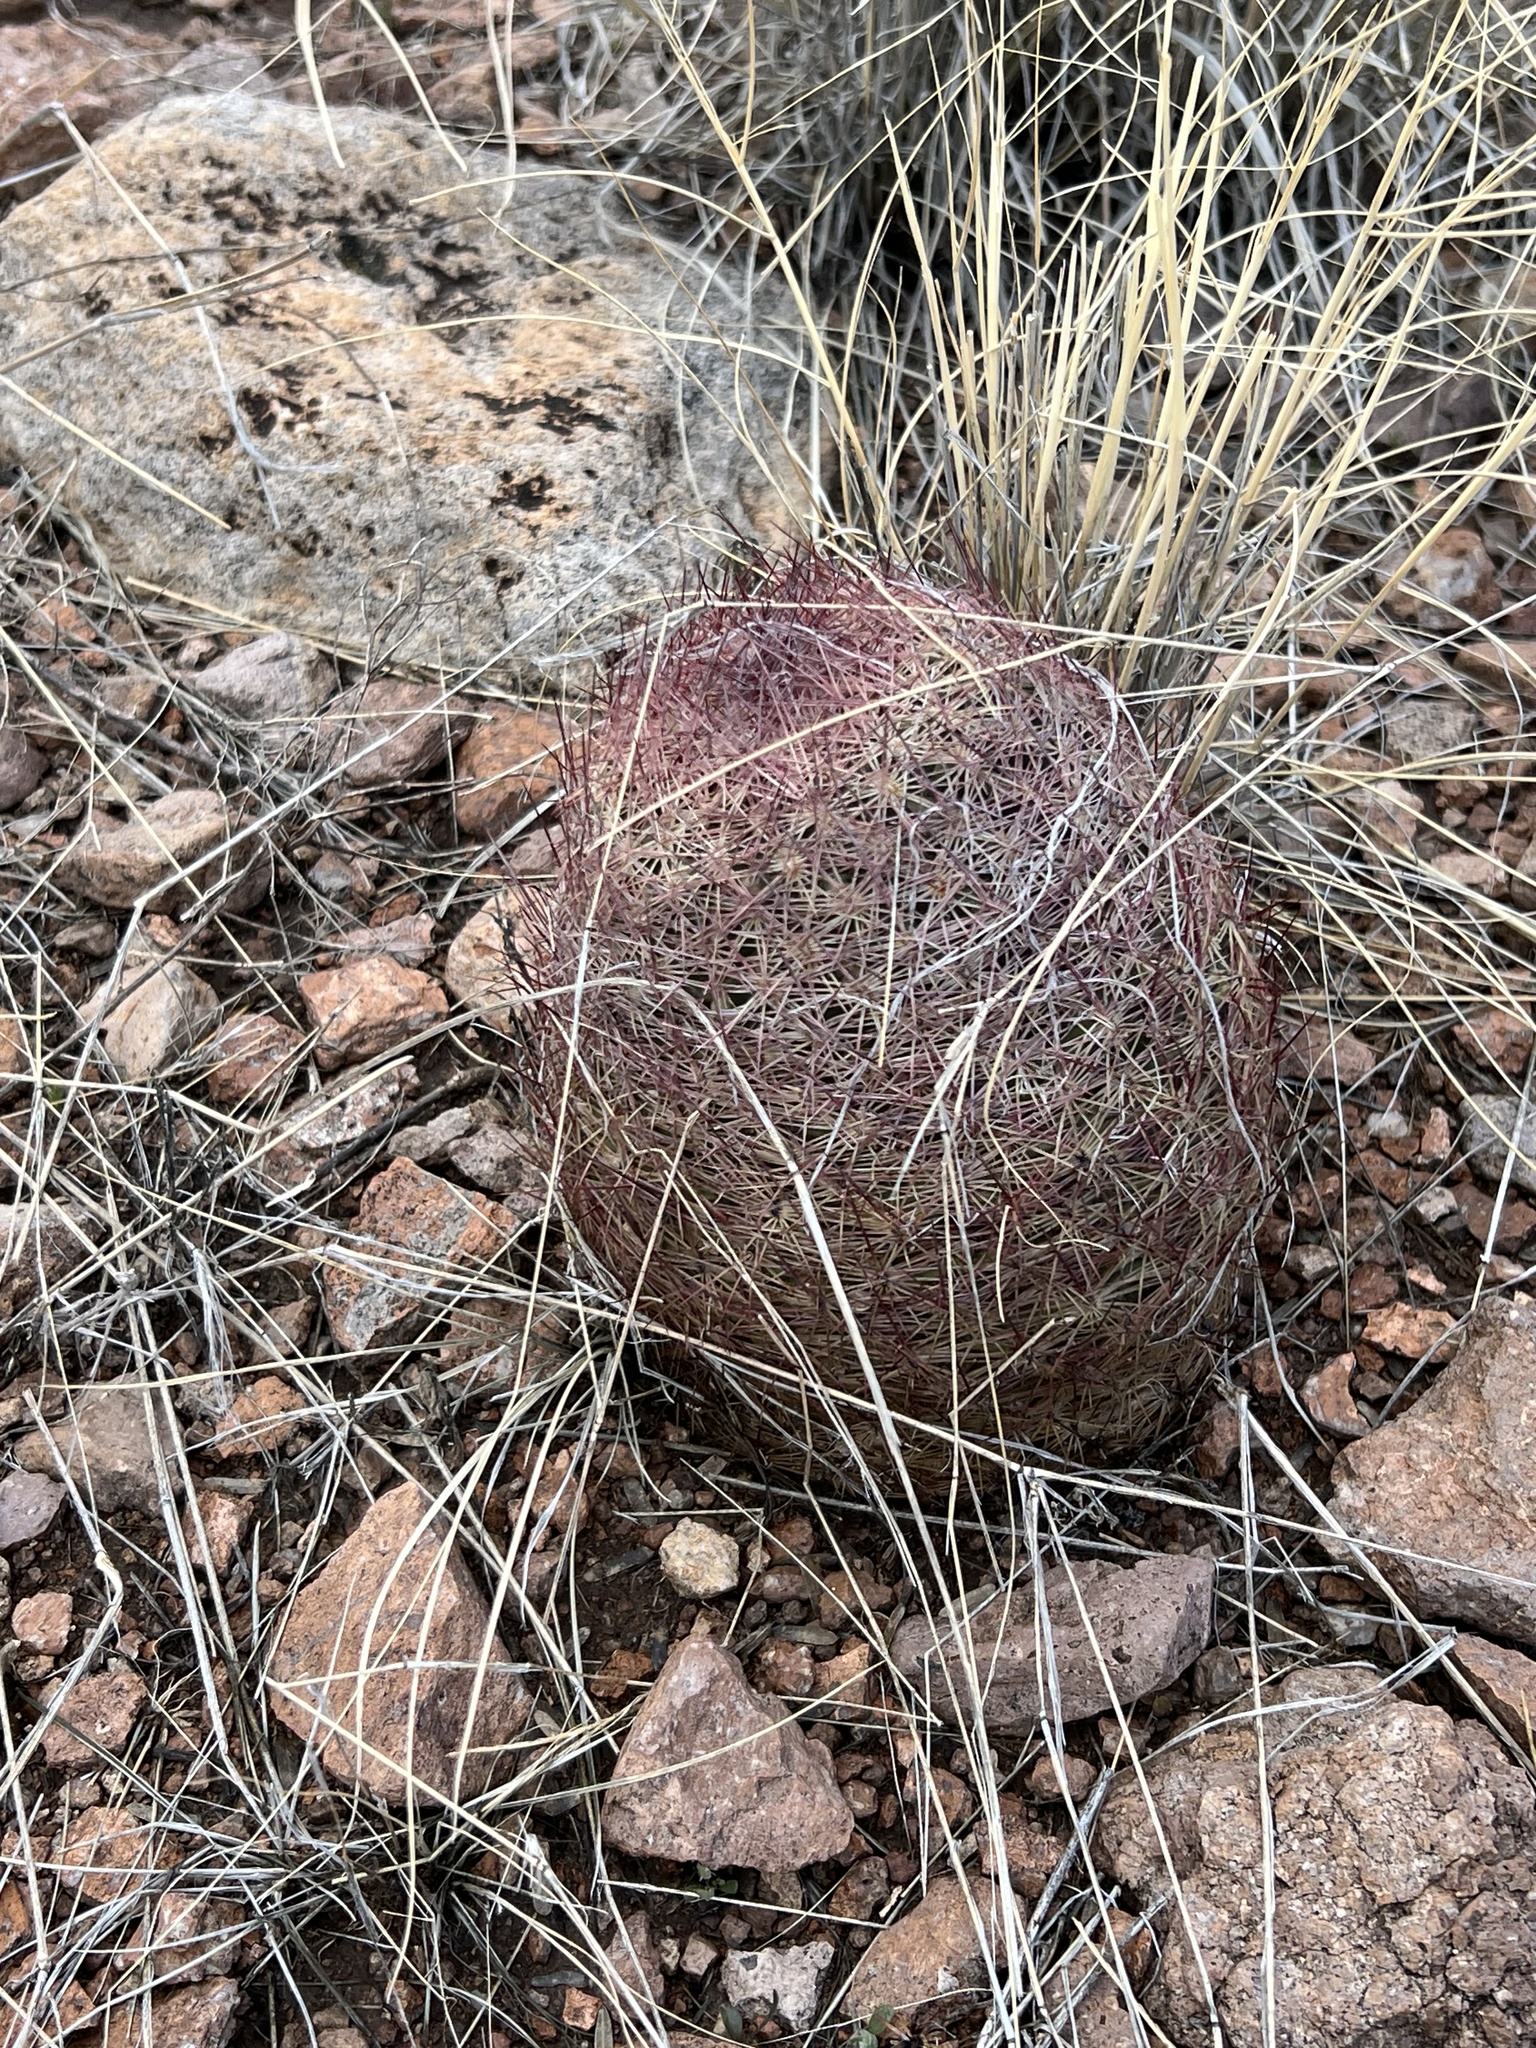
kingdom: Plantae
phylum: Tracheophyta
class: Magnoliopsida
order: Caryophyllales
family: Cactaceae
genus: Sclerocactus
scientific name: Sclerocactus johnsonii
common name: Eight-spine fishhook cactus
